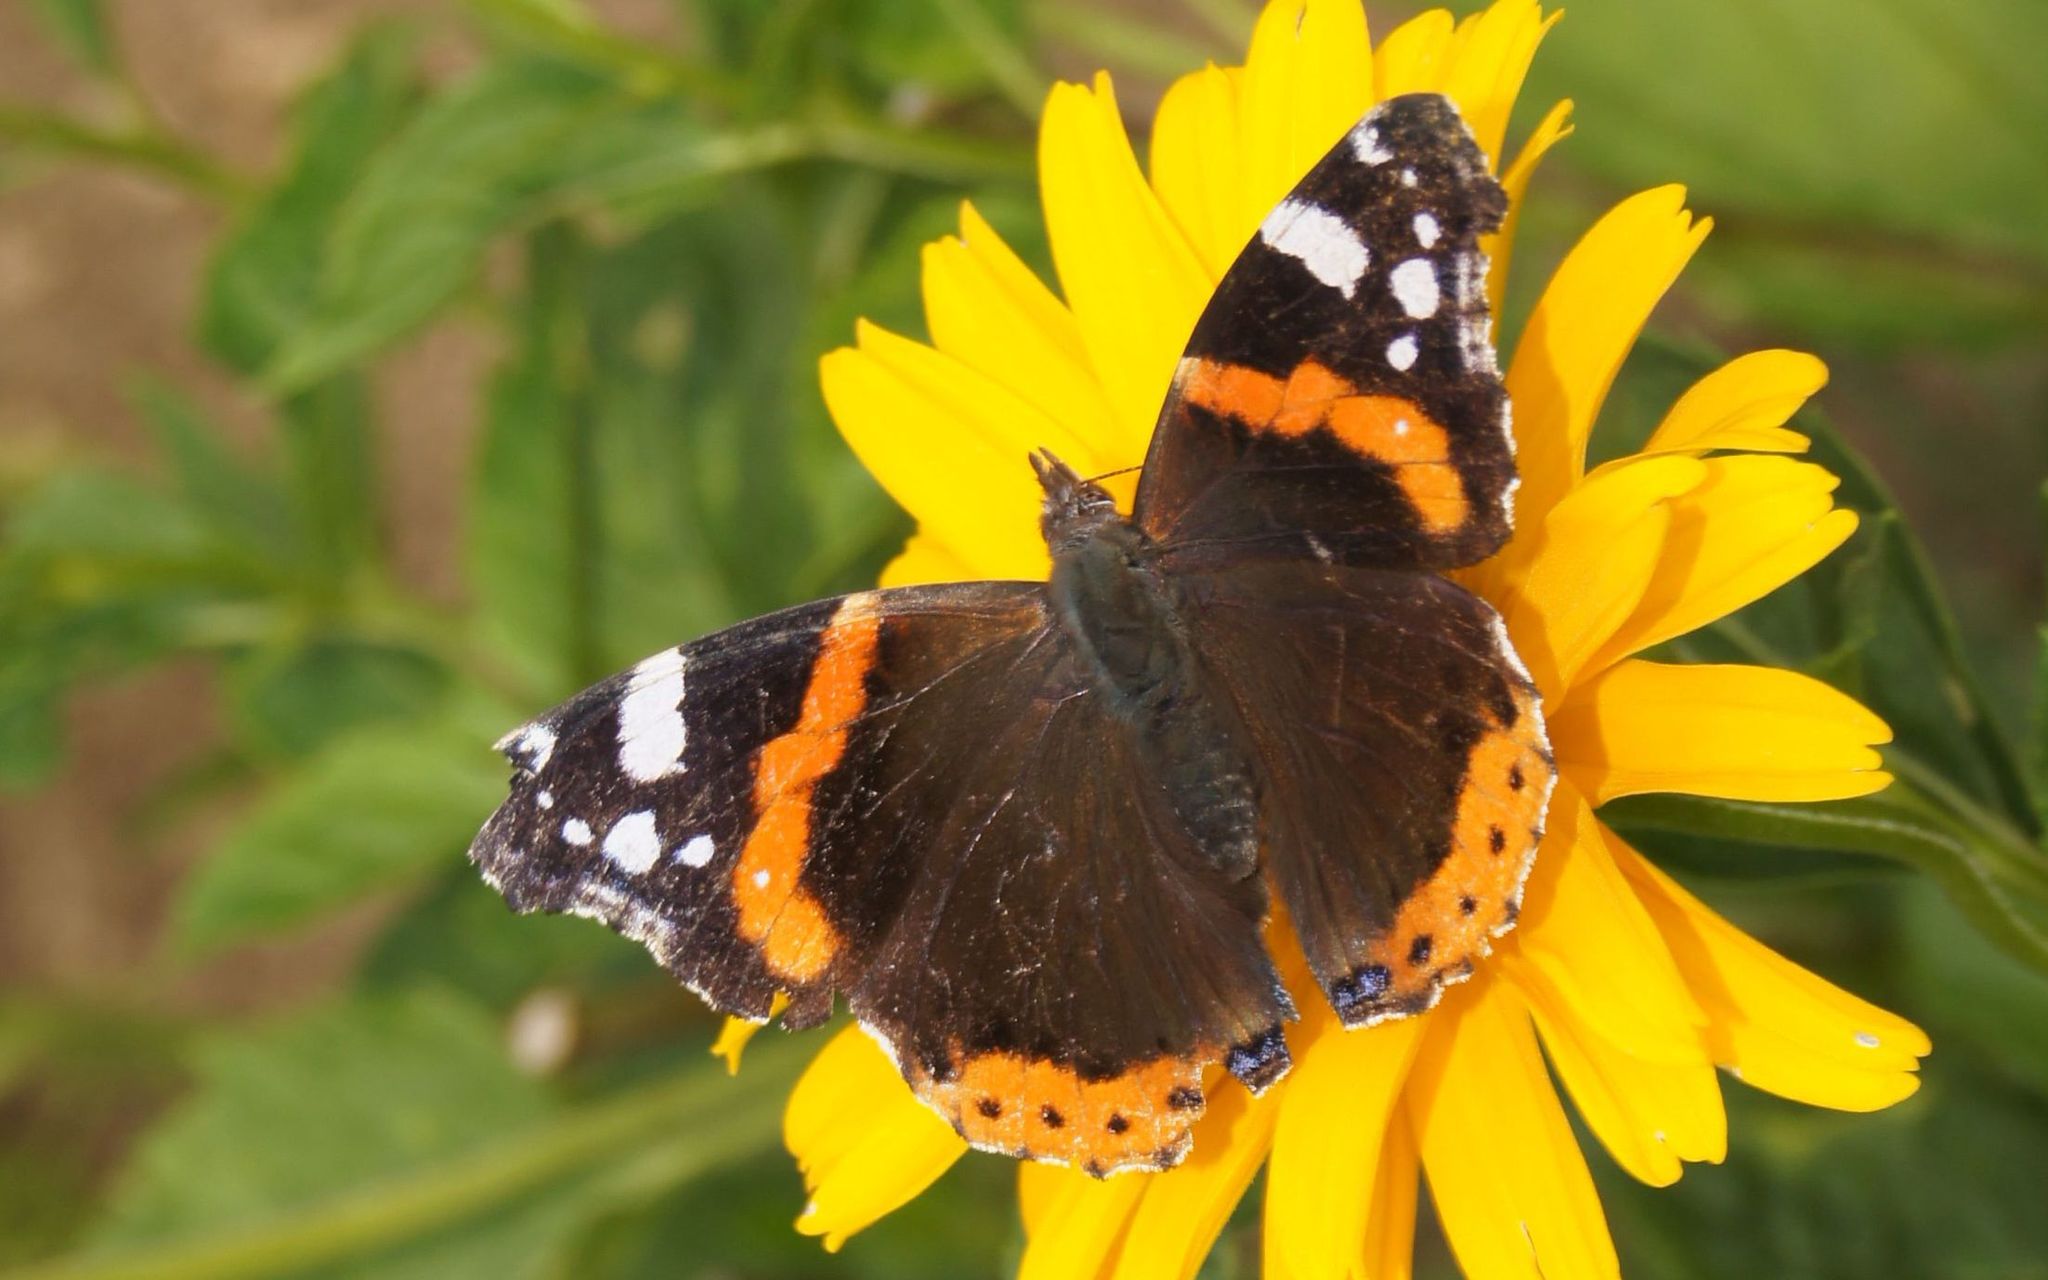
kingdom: Animalia
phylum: Arthropoda
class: Insecta
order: Lepidoptera
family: Nymphalidae
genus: Vanessa
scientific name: Vanessa atalanta
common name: Red admiral
